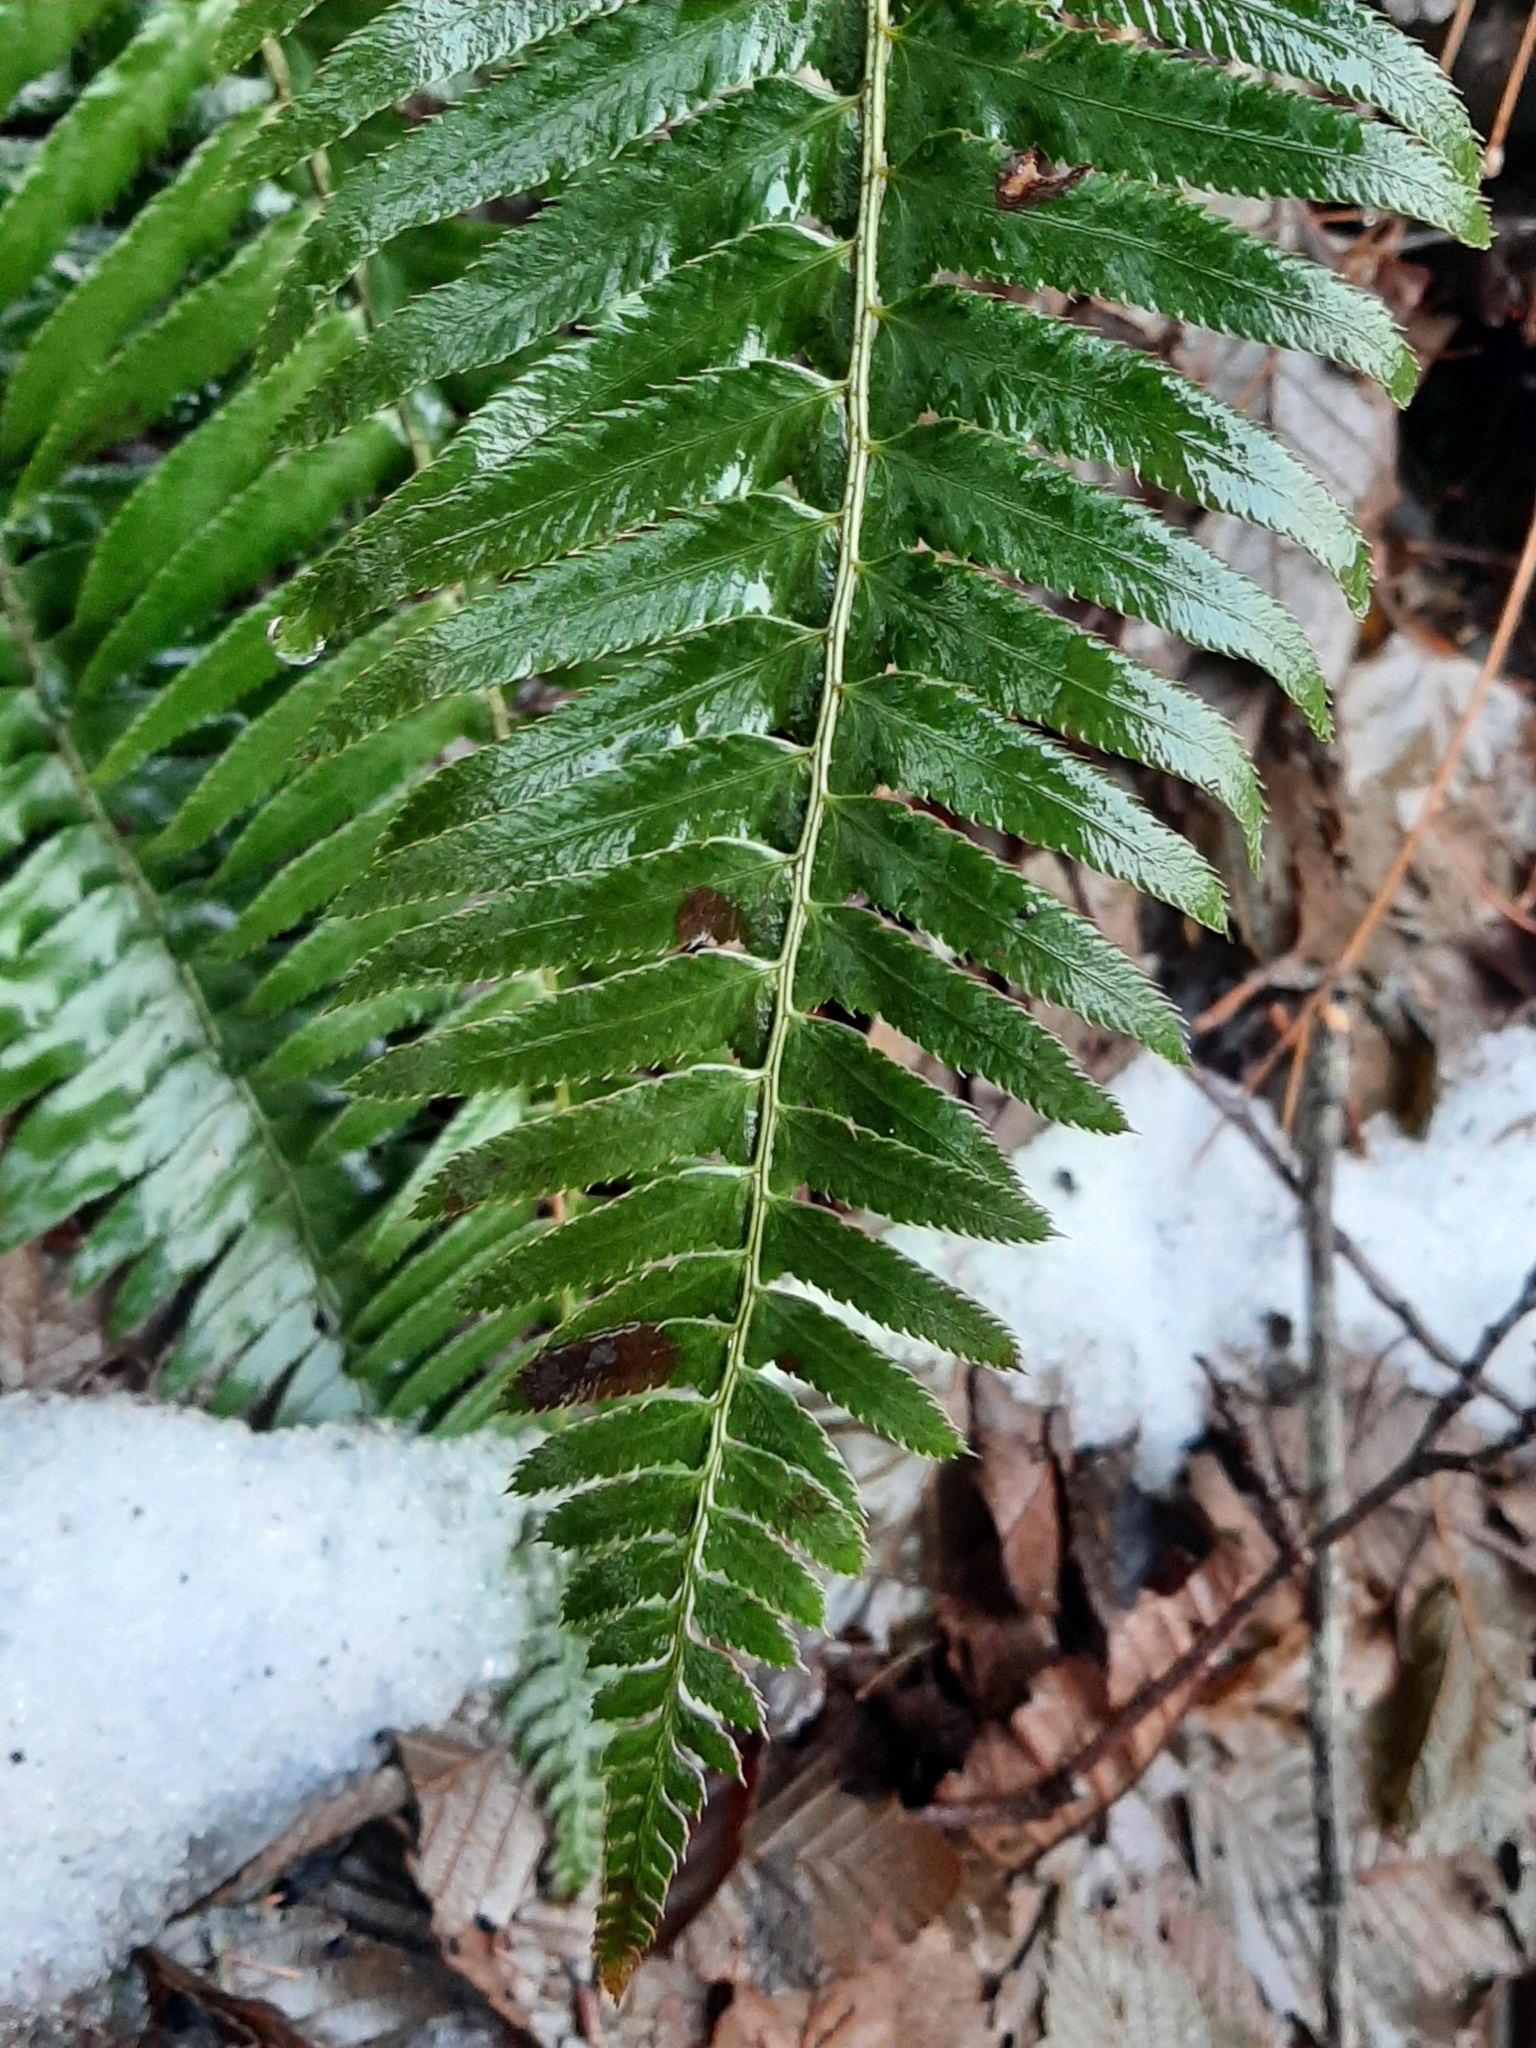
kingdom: Plantae
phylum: Tracheophyta
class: Polypodiopsida
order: Polypodiales
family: Dryopteridaceae
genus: Polystichum
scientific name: Polystichum munitum
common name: Western sword-fern
